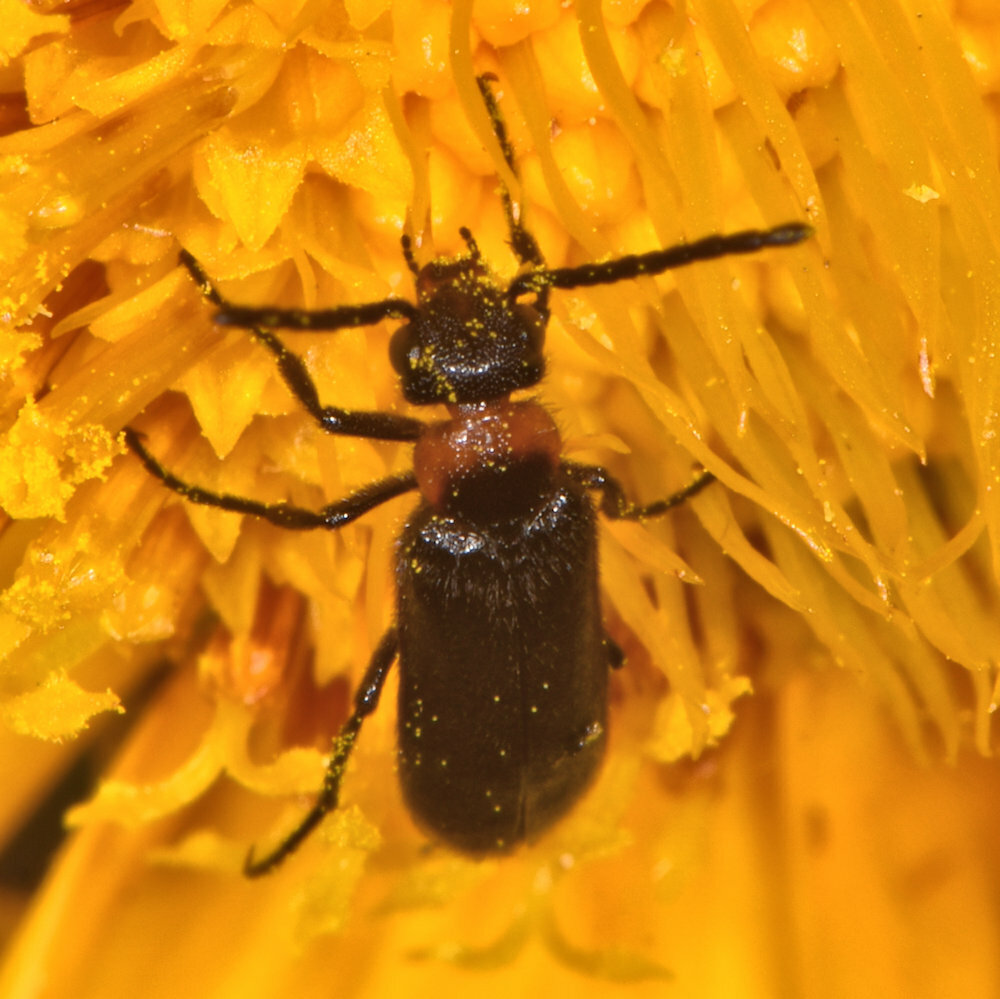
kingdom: Animalia
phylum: Arthropoda
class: Insecta
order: Coleoptera
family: Meloidae
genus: Nemognatha
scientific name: Nemognatha nemorensis
